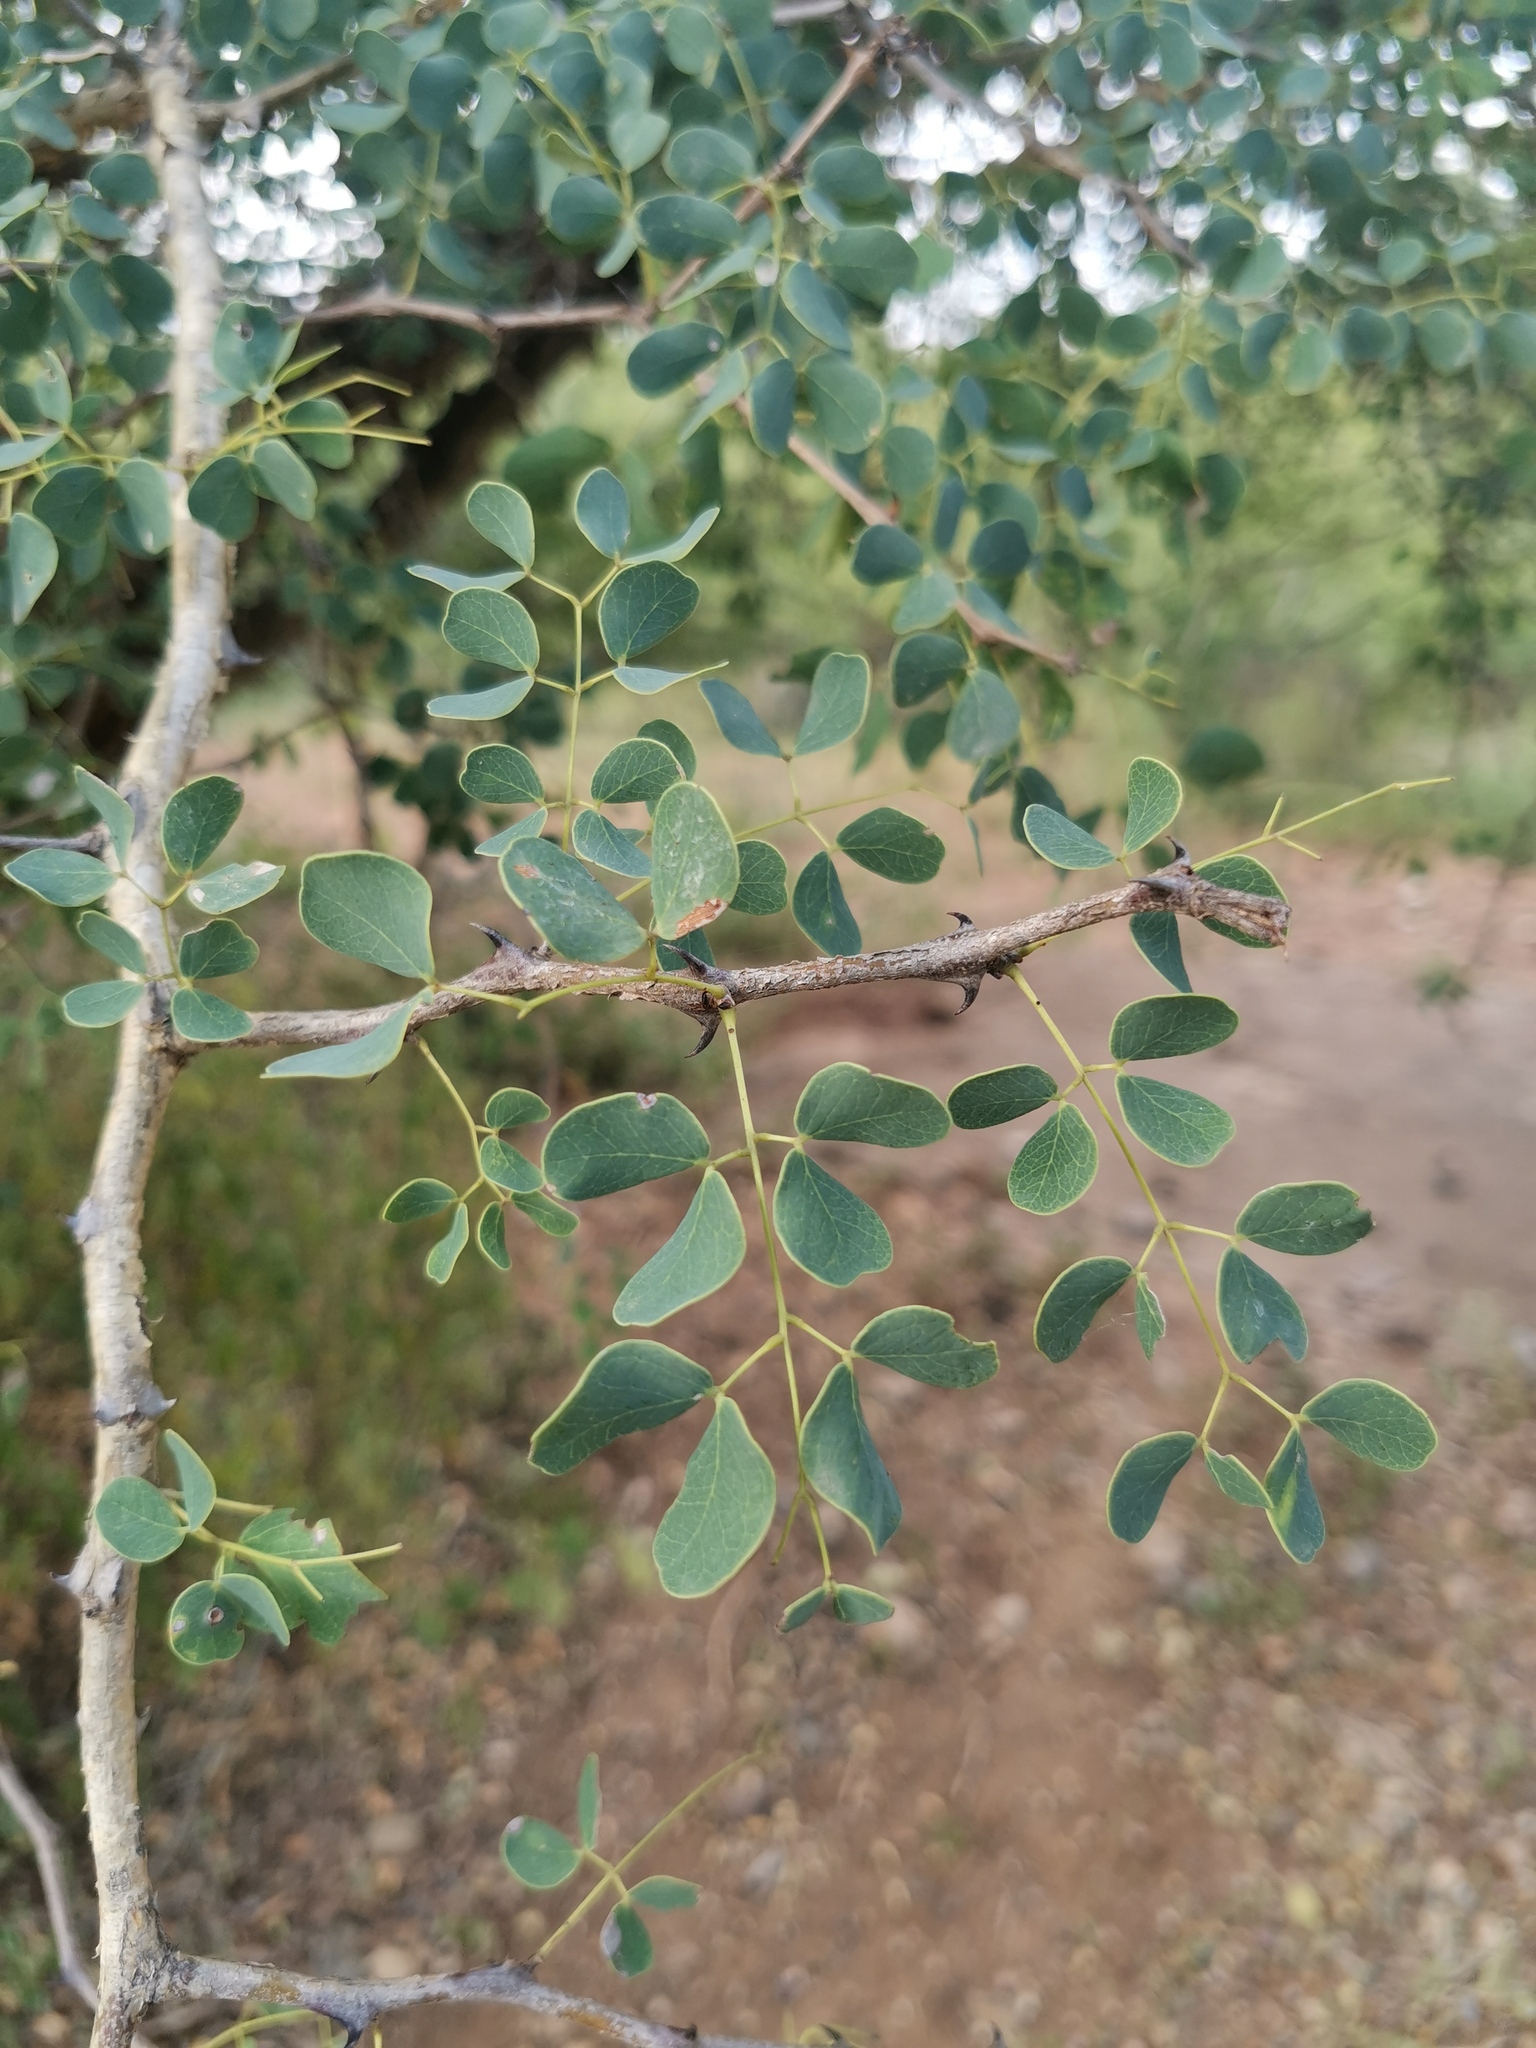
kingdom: Plantae
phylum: Tracheophyta
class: Magnoliopsida
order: Fabales
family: Fabaceae
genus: Senegalia
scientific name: Senegalia nigrescens
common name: Knobthorn
